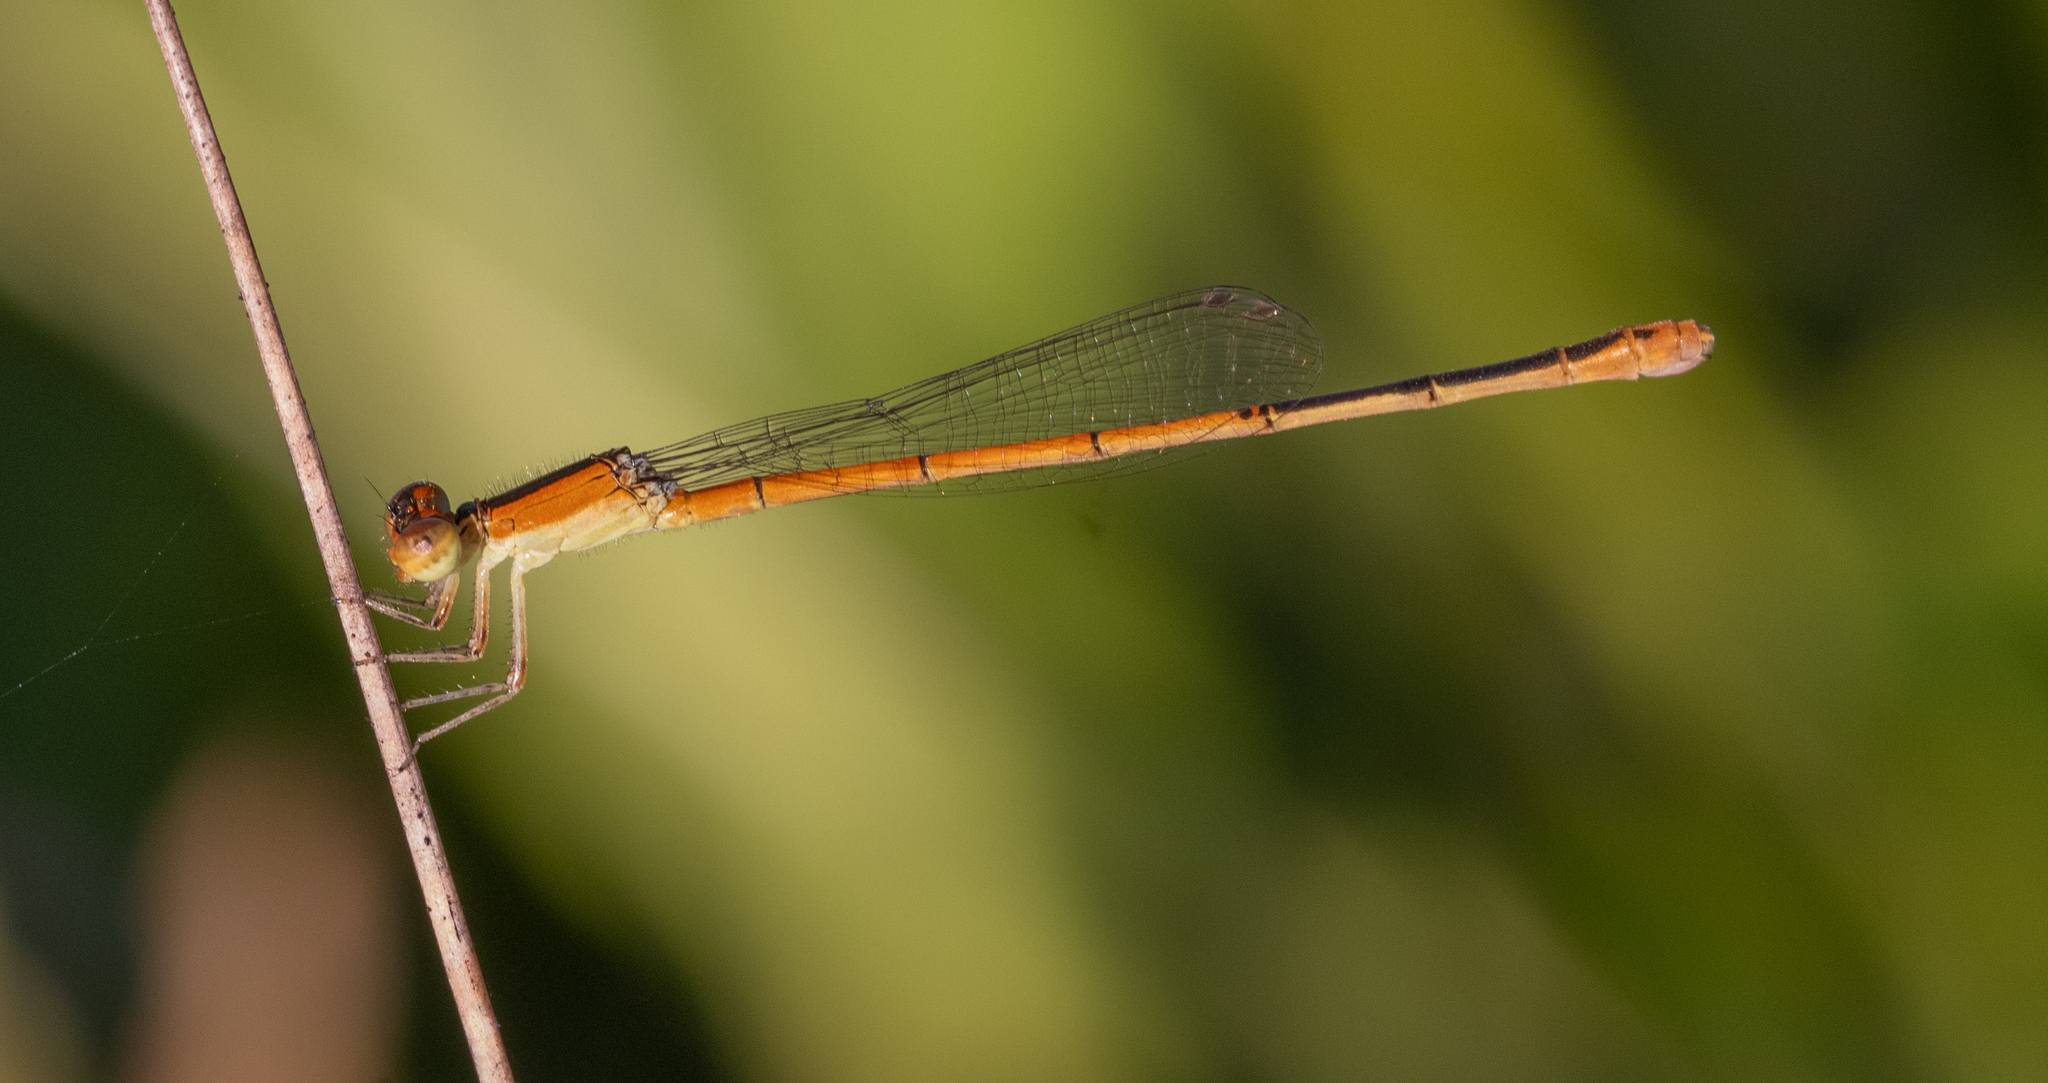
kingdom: Animalia
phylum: Arthropoda
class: Insecta
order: Odonata
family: Coenagrionidae
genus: Ischnura
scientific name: Ischnura hastata
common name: Citrine forktail
